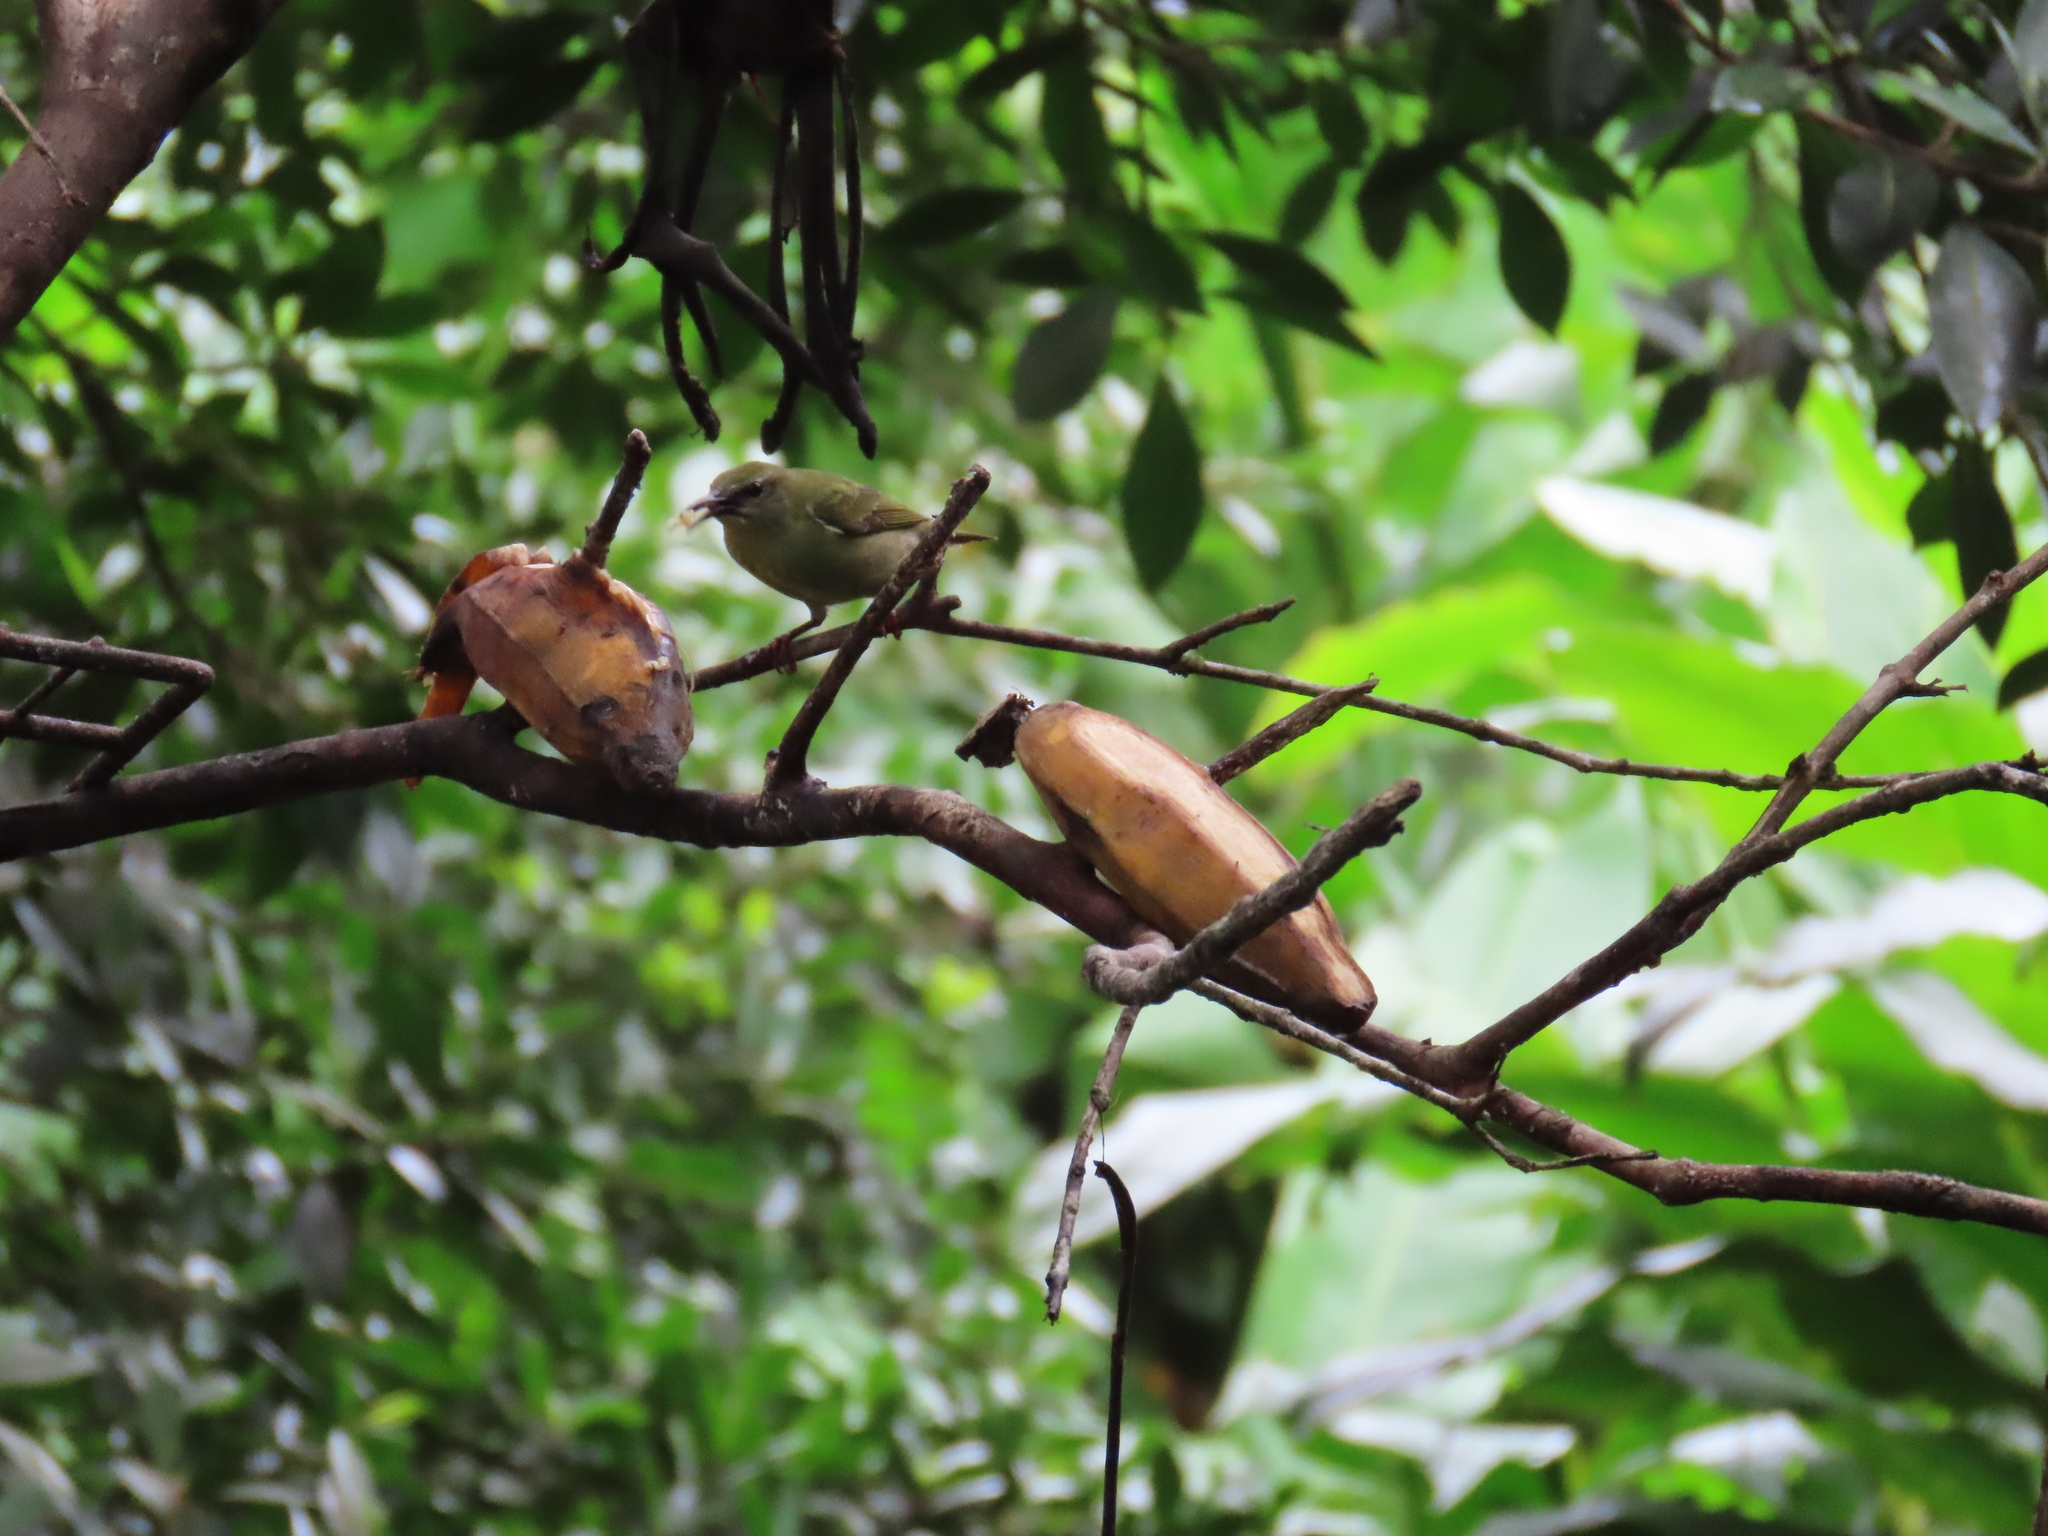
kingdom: Animalia
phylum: Chordata
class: Aves
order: Passeriformes
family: Thraupidae
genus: Cyanerpes
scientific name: Cyanerpes cyaneus
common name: Red-legged honeycreeper
